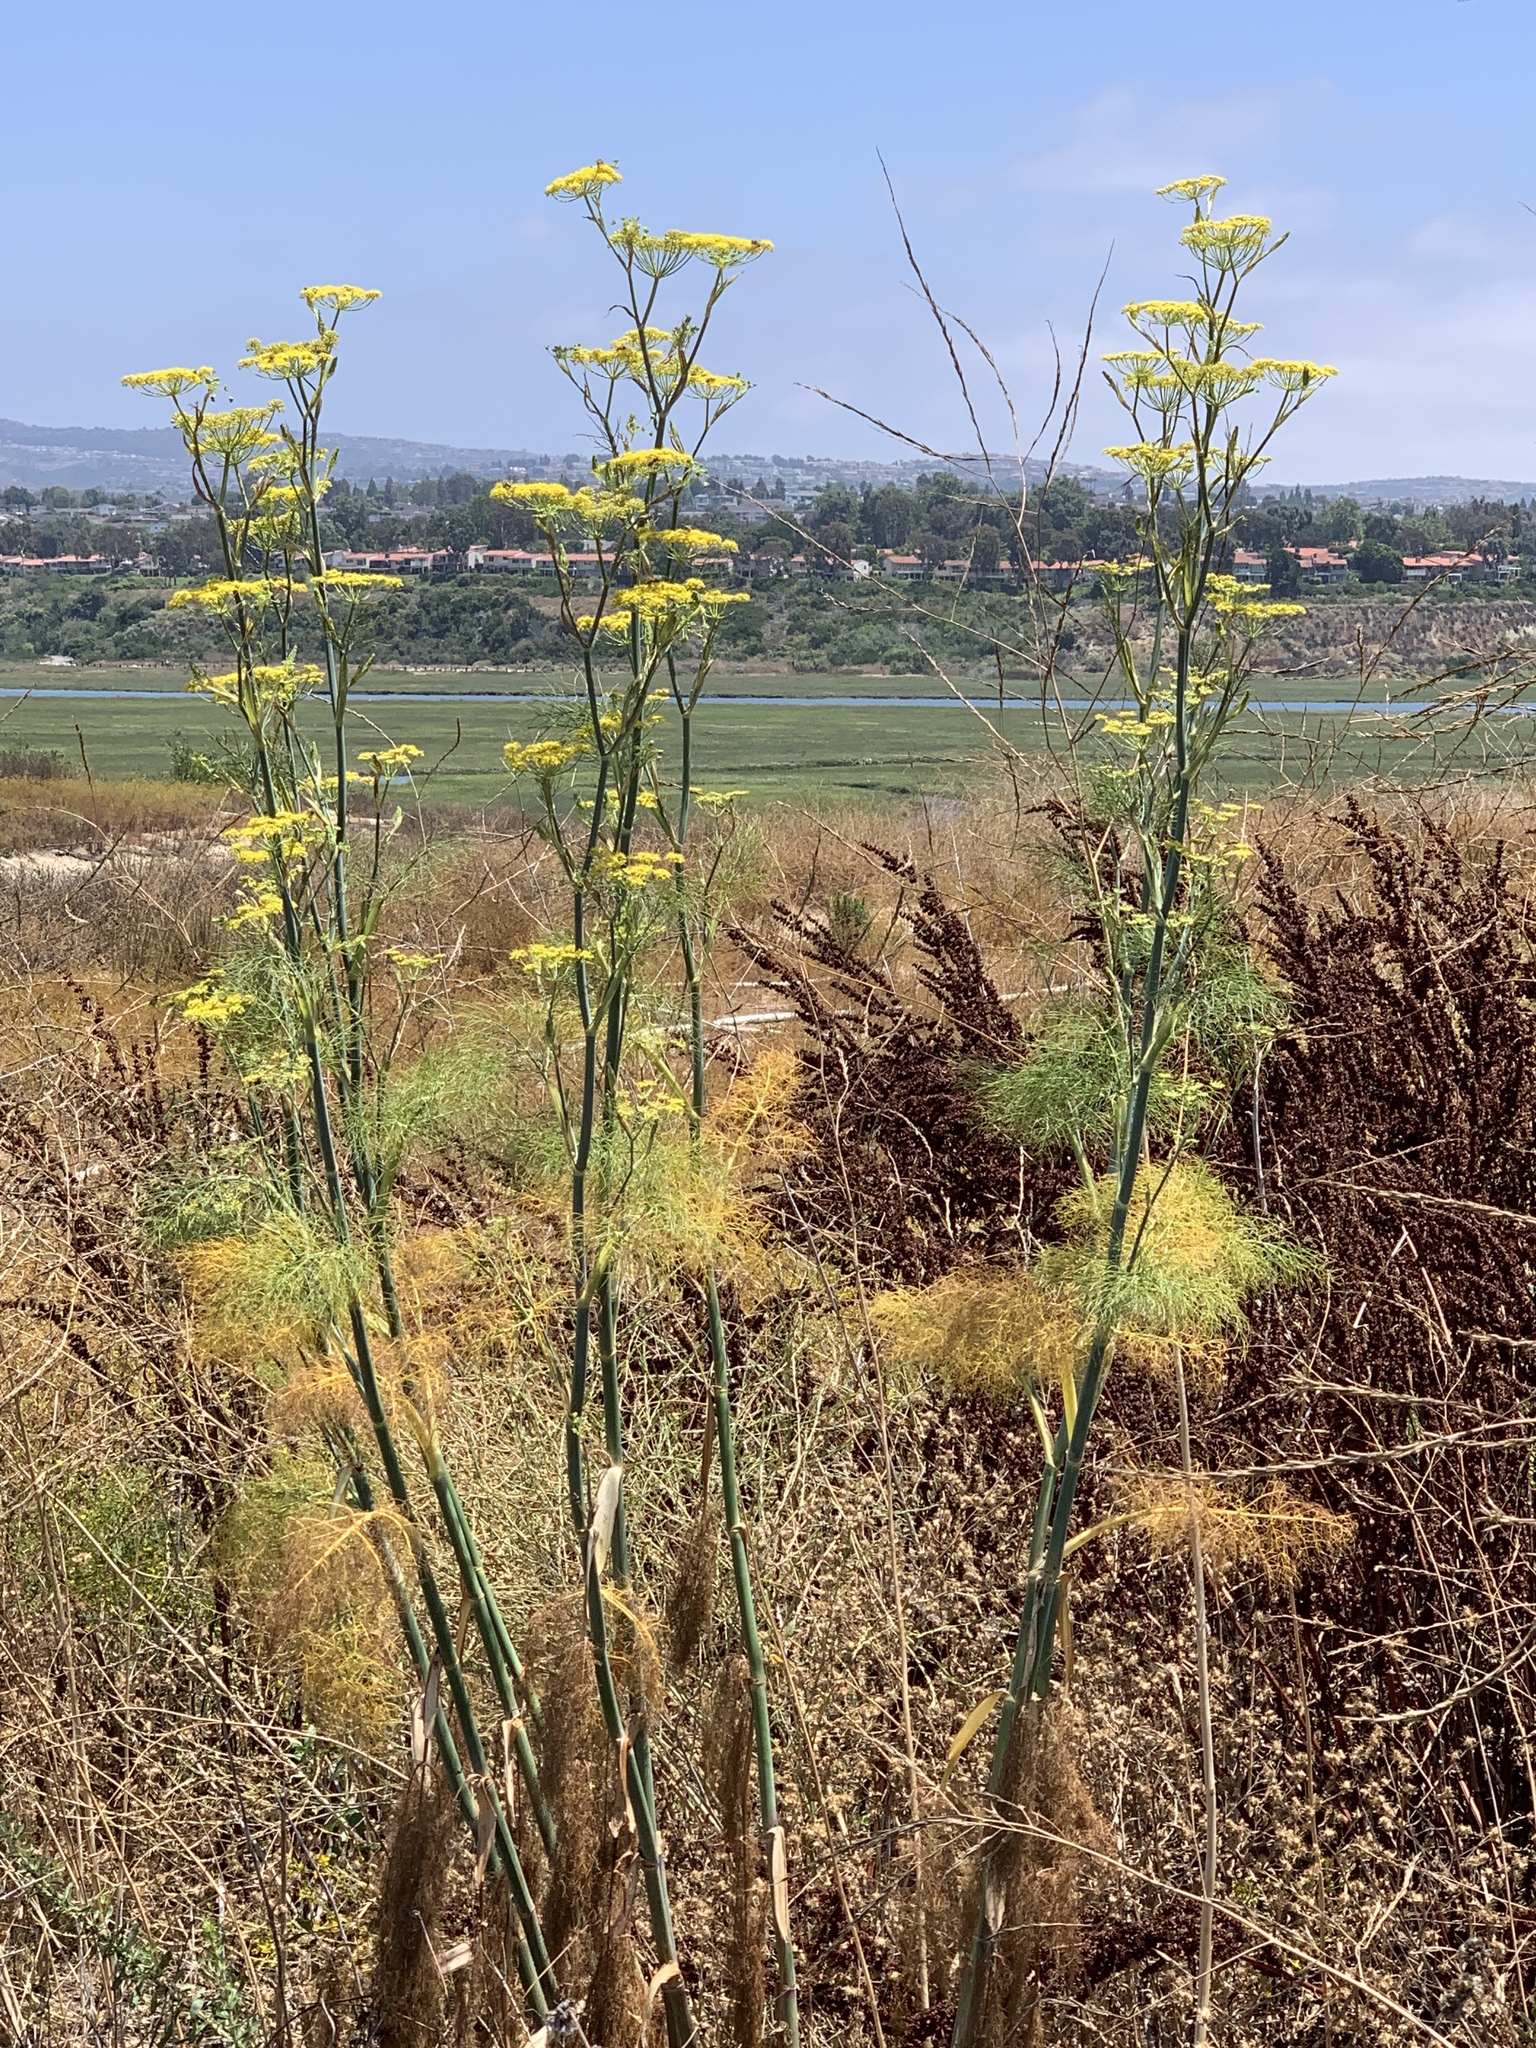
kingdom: Plantae
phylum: Tracheophyta
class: Magnoliopsida
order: Apiales
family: Apiaceae
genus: Foeniculum
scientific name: Foeniculum vulgare
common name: Fennel
